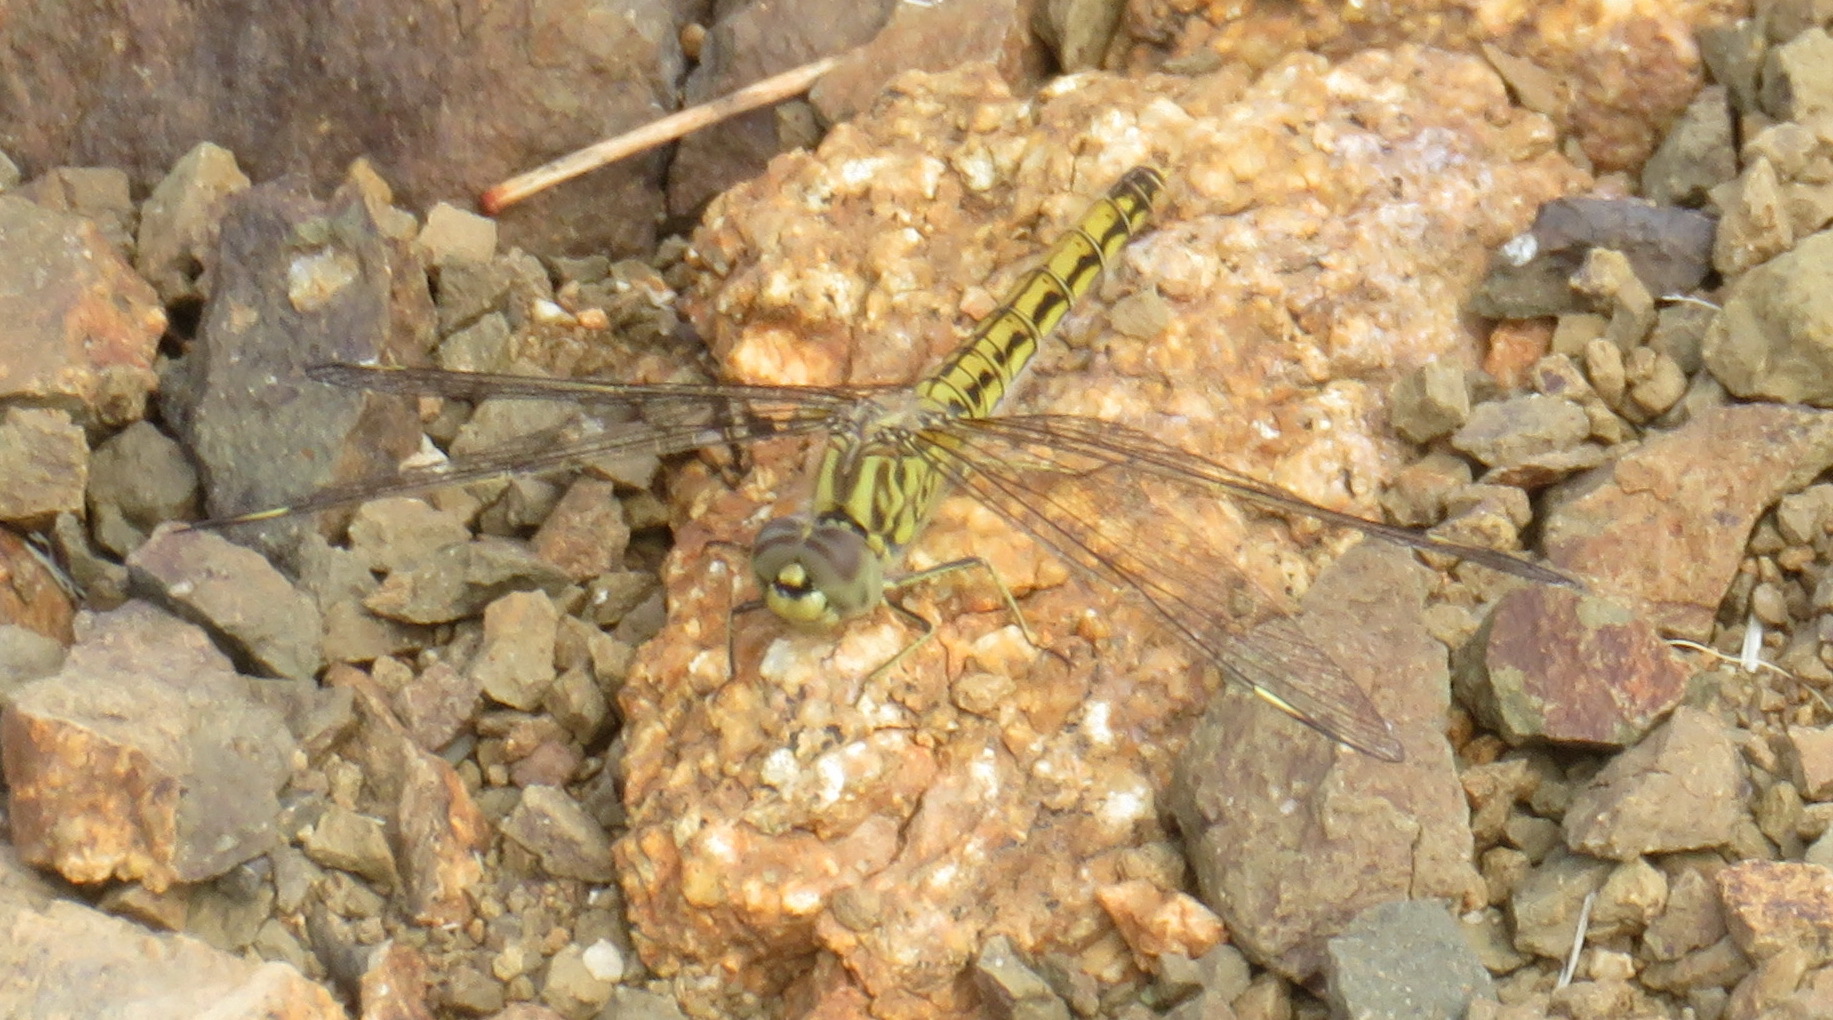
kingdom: Animalia
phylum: Arthropoda
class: Insecta
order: Odonata
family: Libellulidae
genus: Brachythemis
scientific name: Brachythemis leucosticta
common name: Banded groundling
